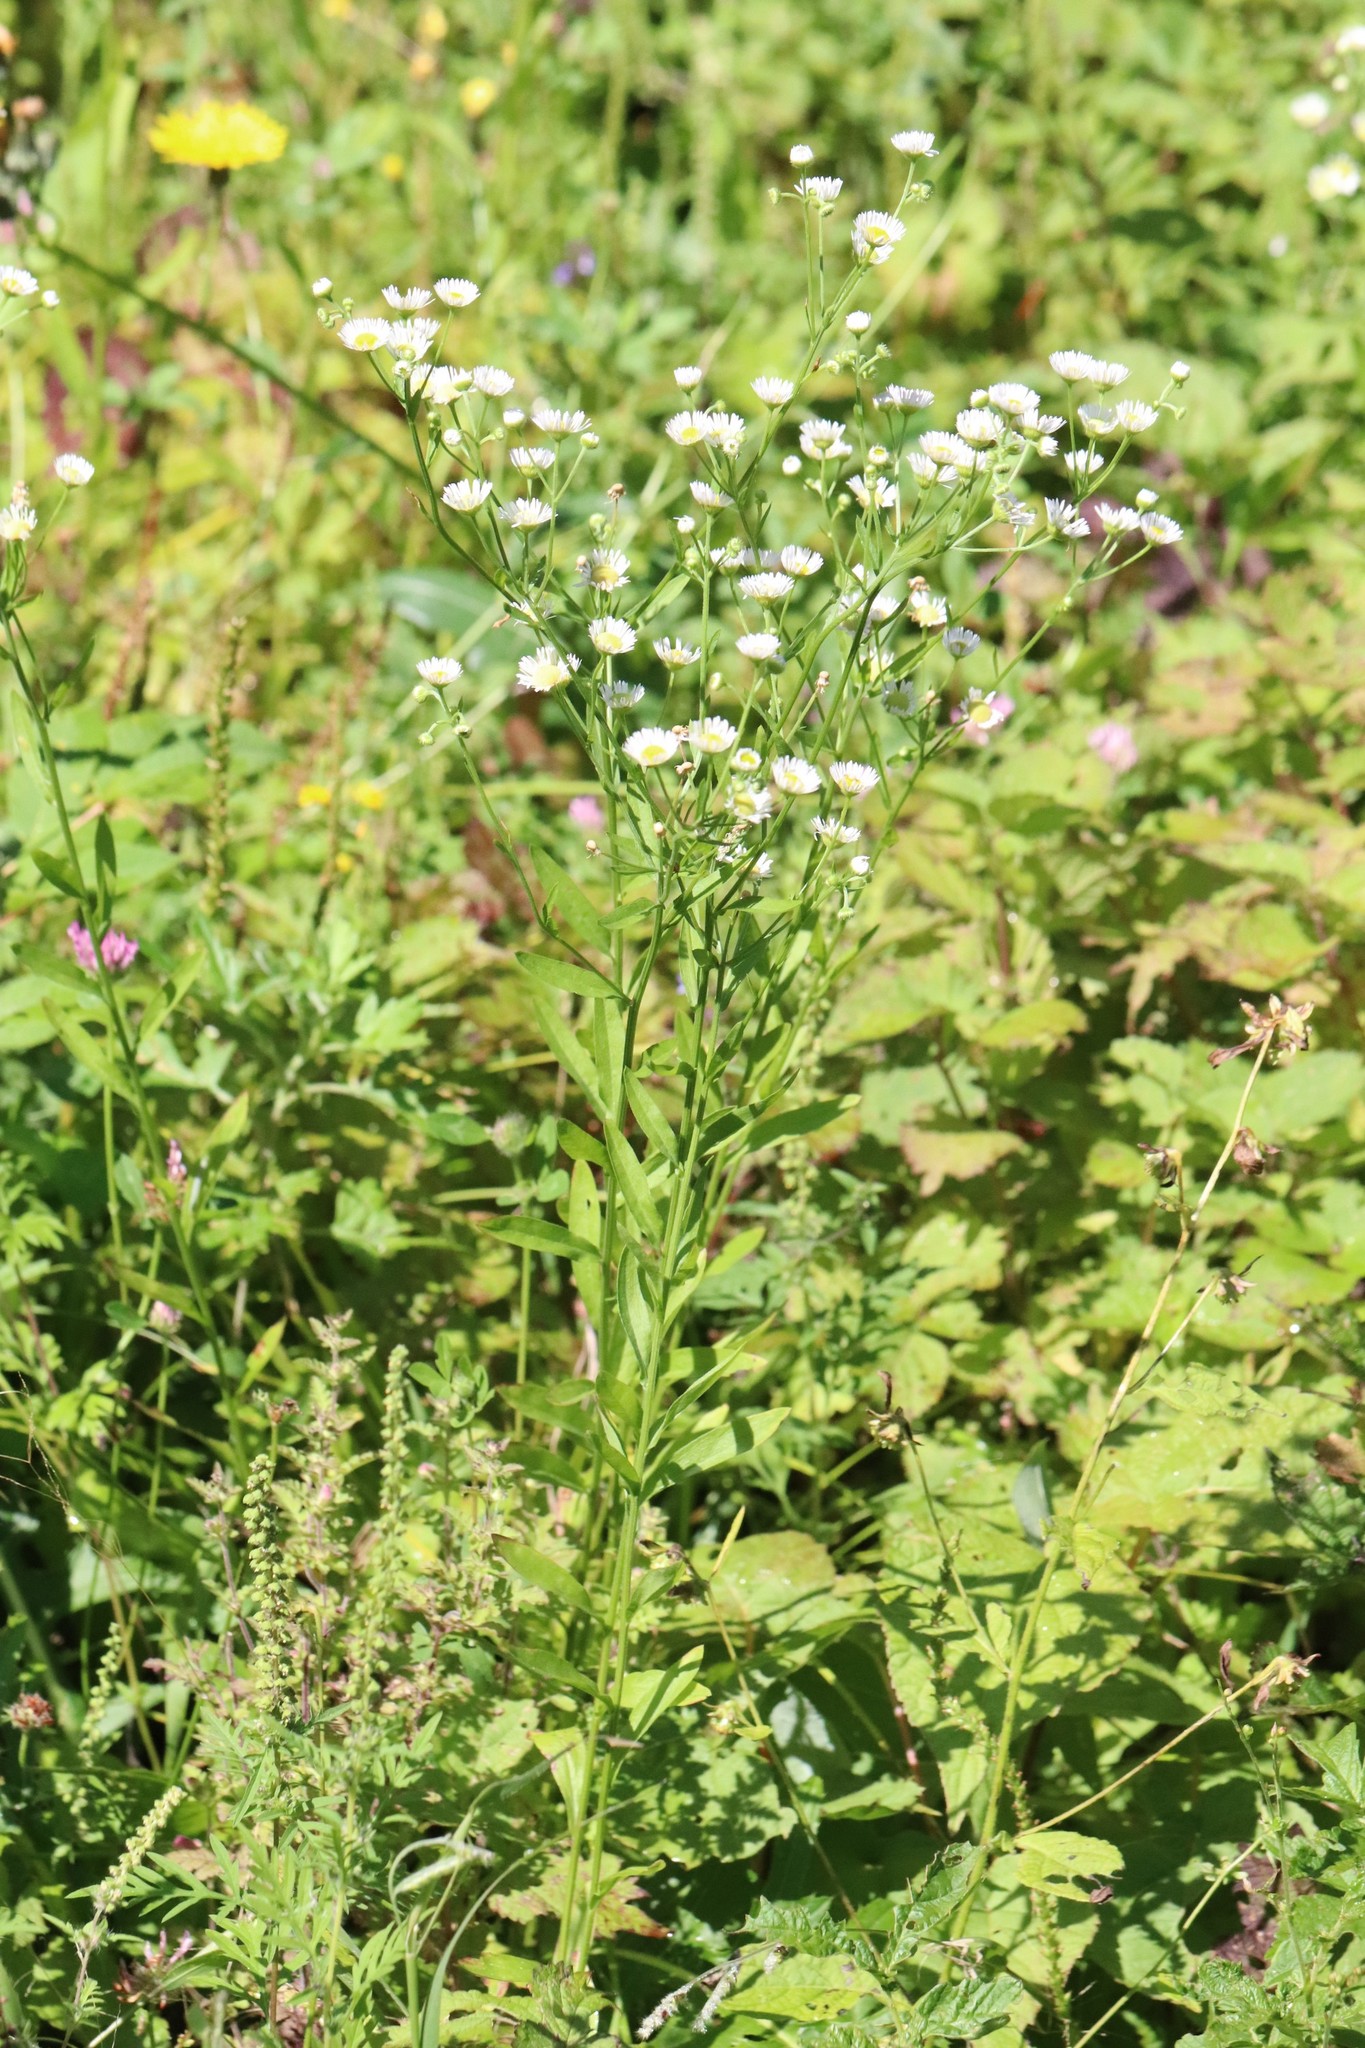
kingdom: Plantae
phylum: Tracheophyta
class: Magnoliopsida
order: Asterales
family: Asteraceae
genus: Erigeron
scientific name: Erigeron strigosus
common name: Common eastern fleabane
